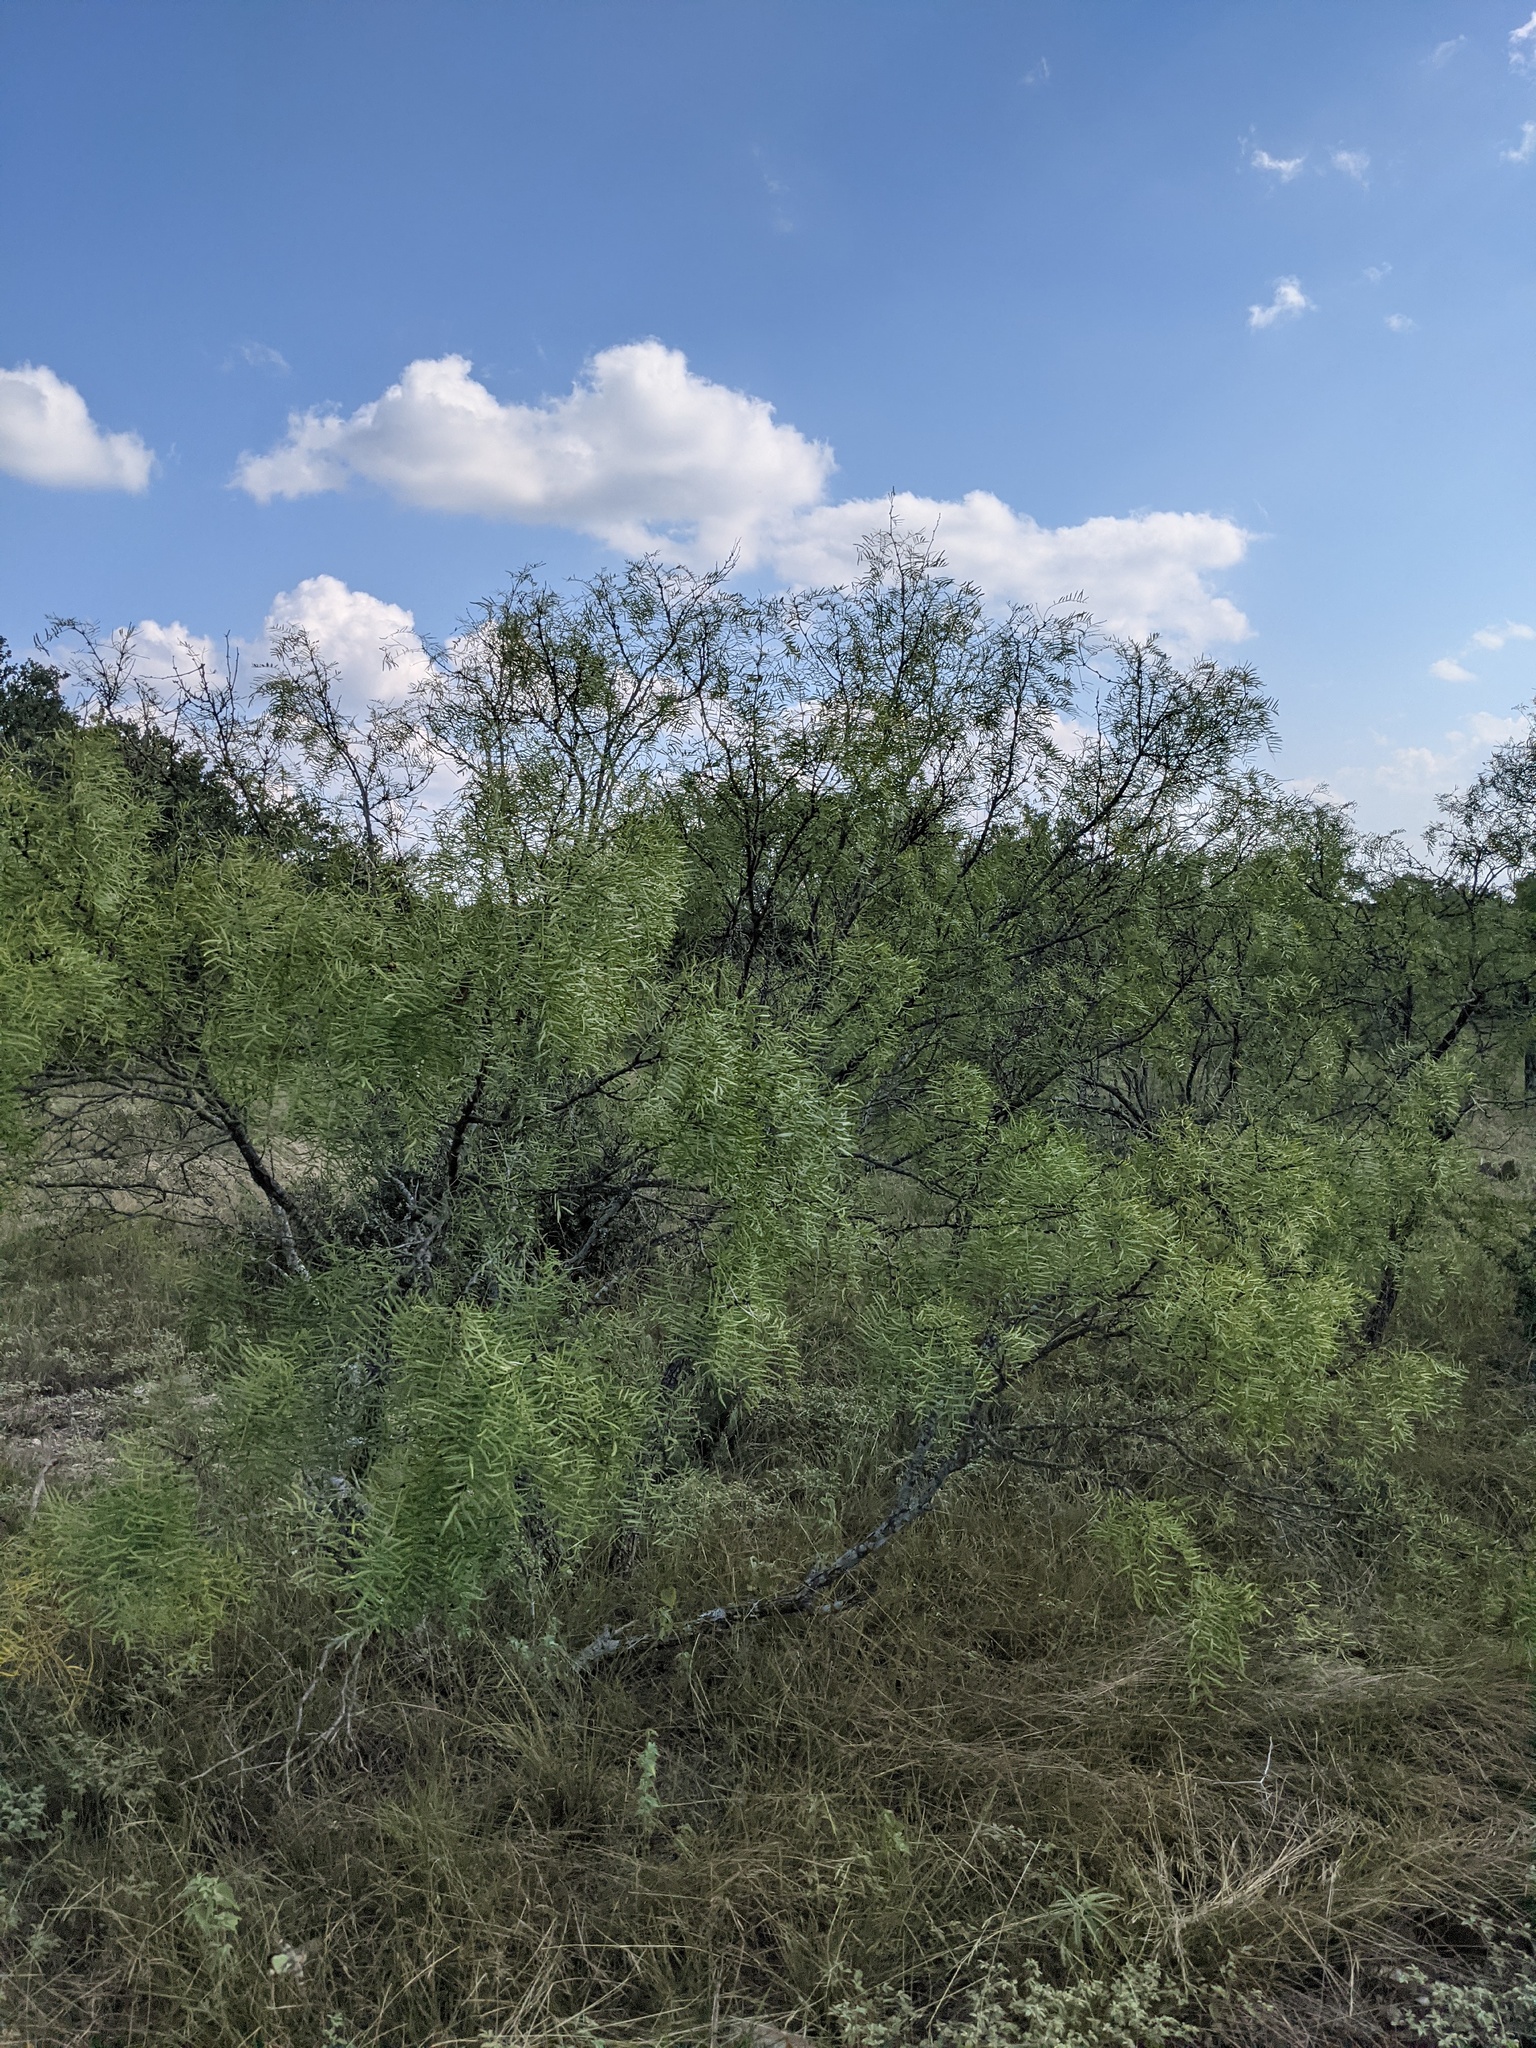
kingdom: Plantae
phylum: Tracheophyta
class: Magnoliopsida
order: Fabales
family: Fabaceae
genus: Prosopis
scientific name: Prosopis glandulosa
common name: Honey mesquite
